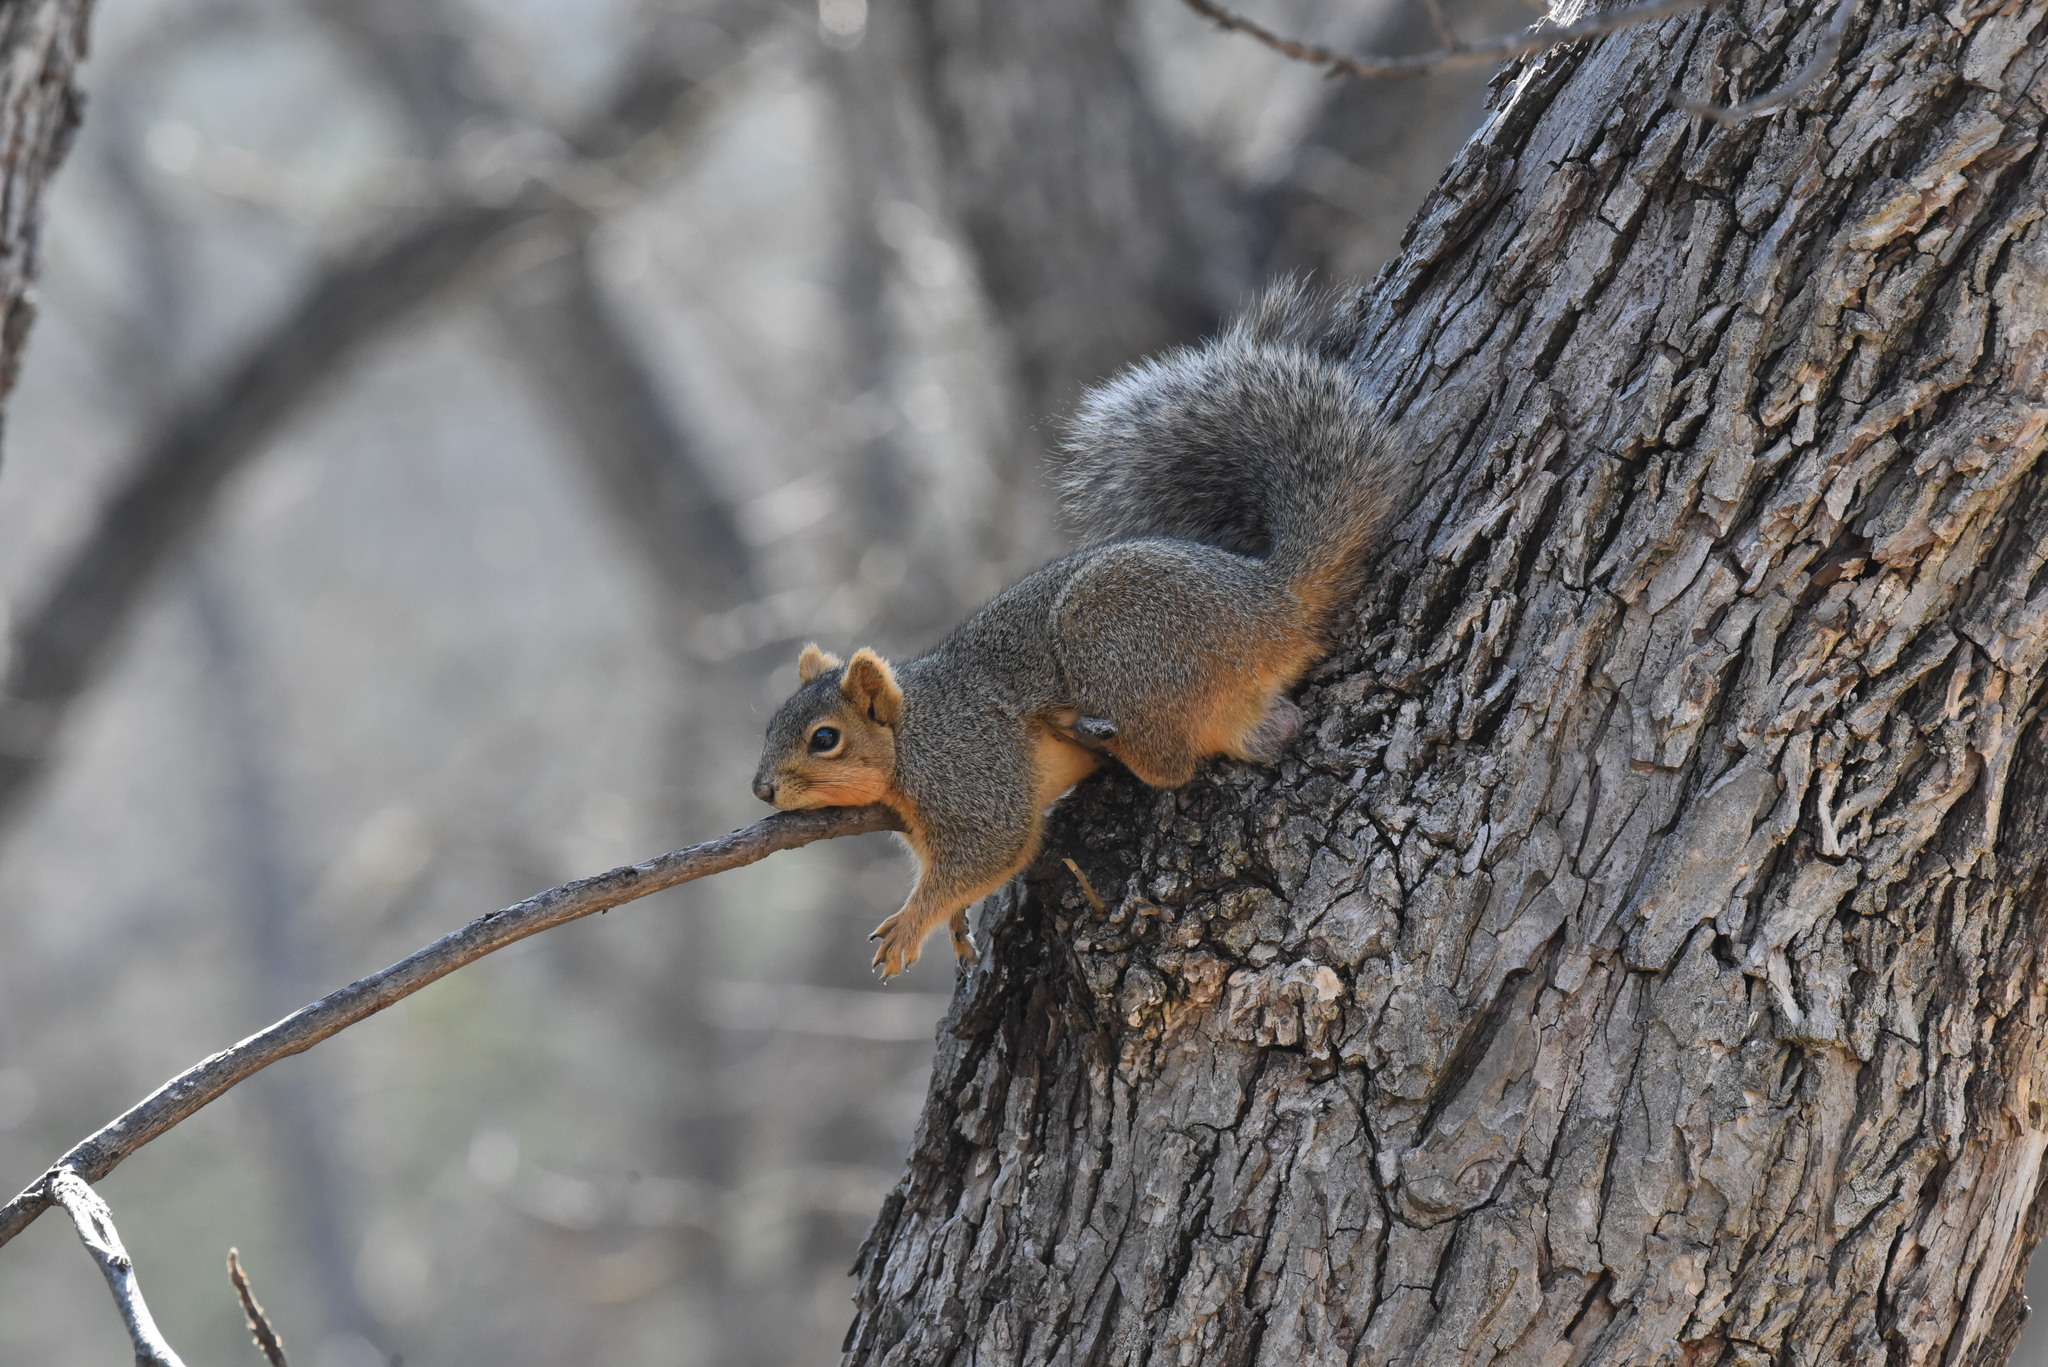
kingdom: Animalia
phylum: Chordata
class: Mammalia
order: Rodentia
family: Sciuridae
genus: Sciurus
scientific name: Sciurus niger
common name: Fox squirrel
